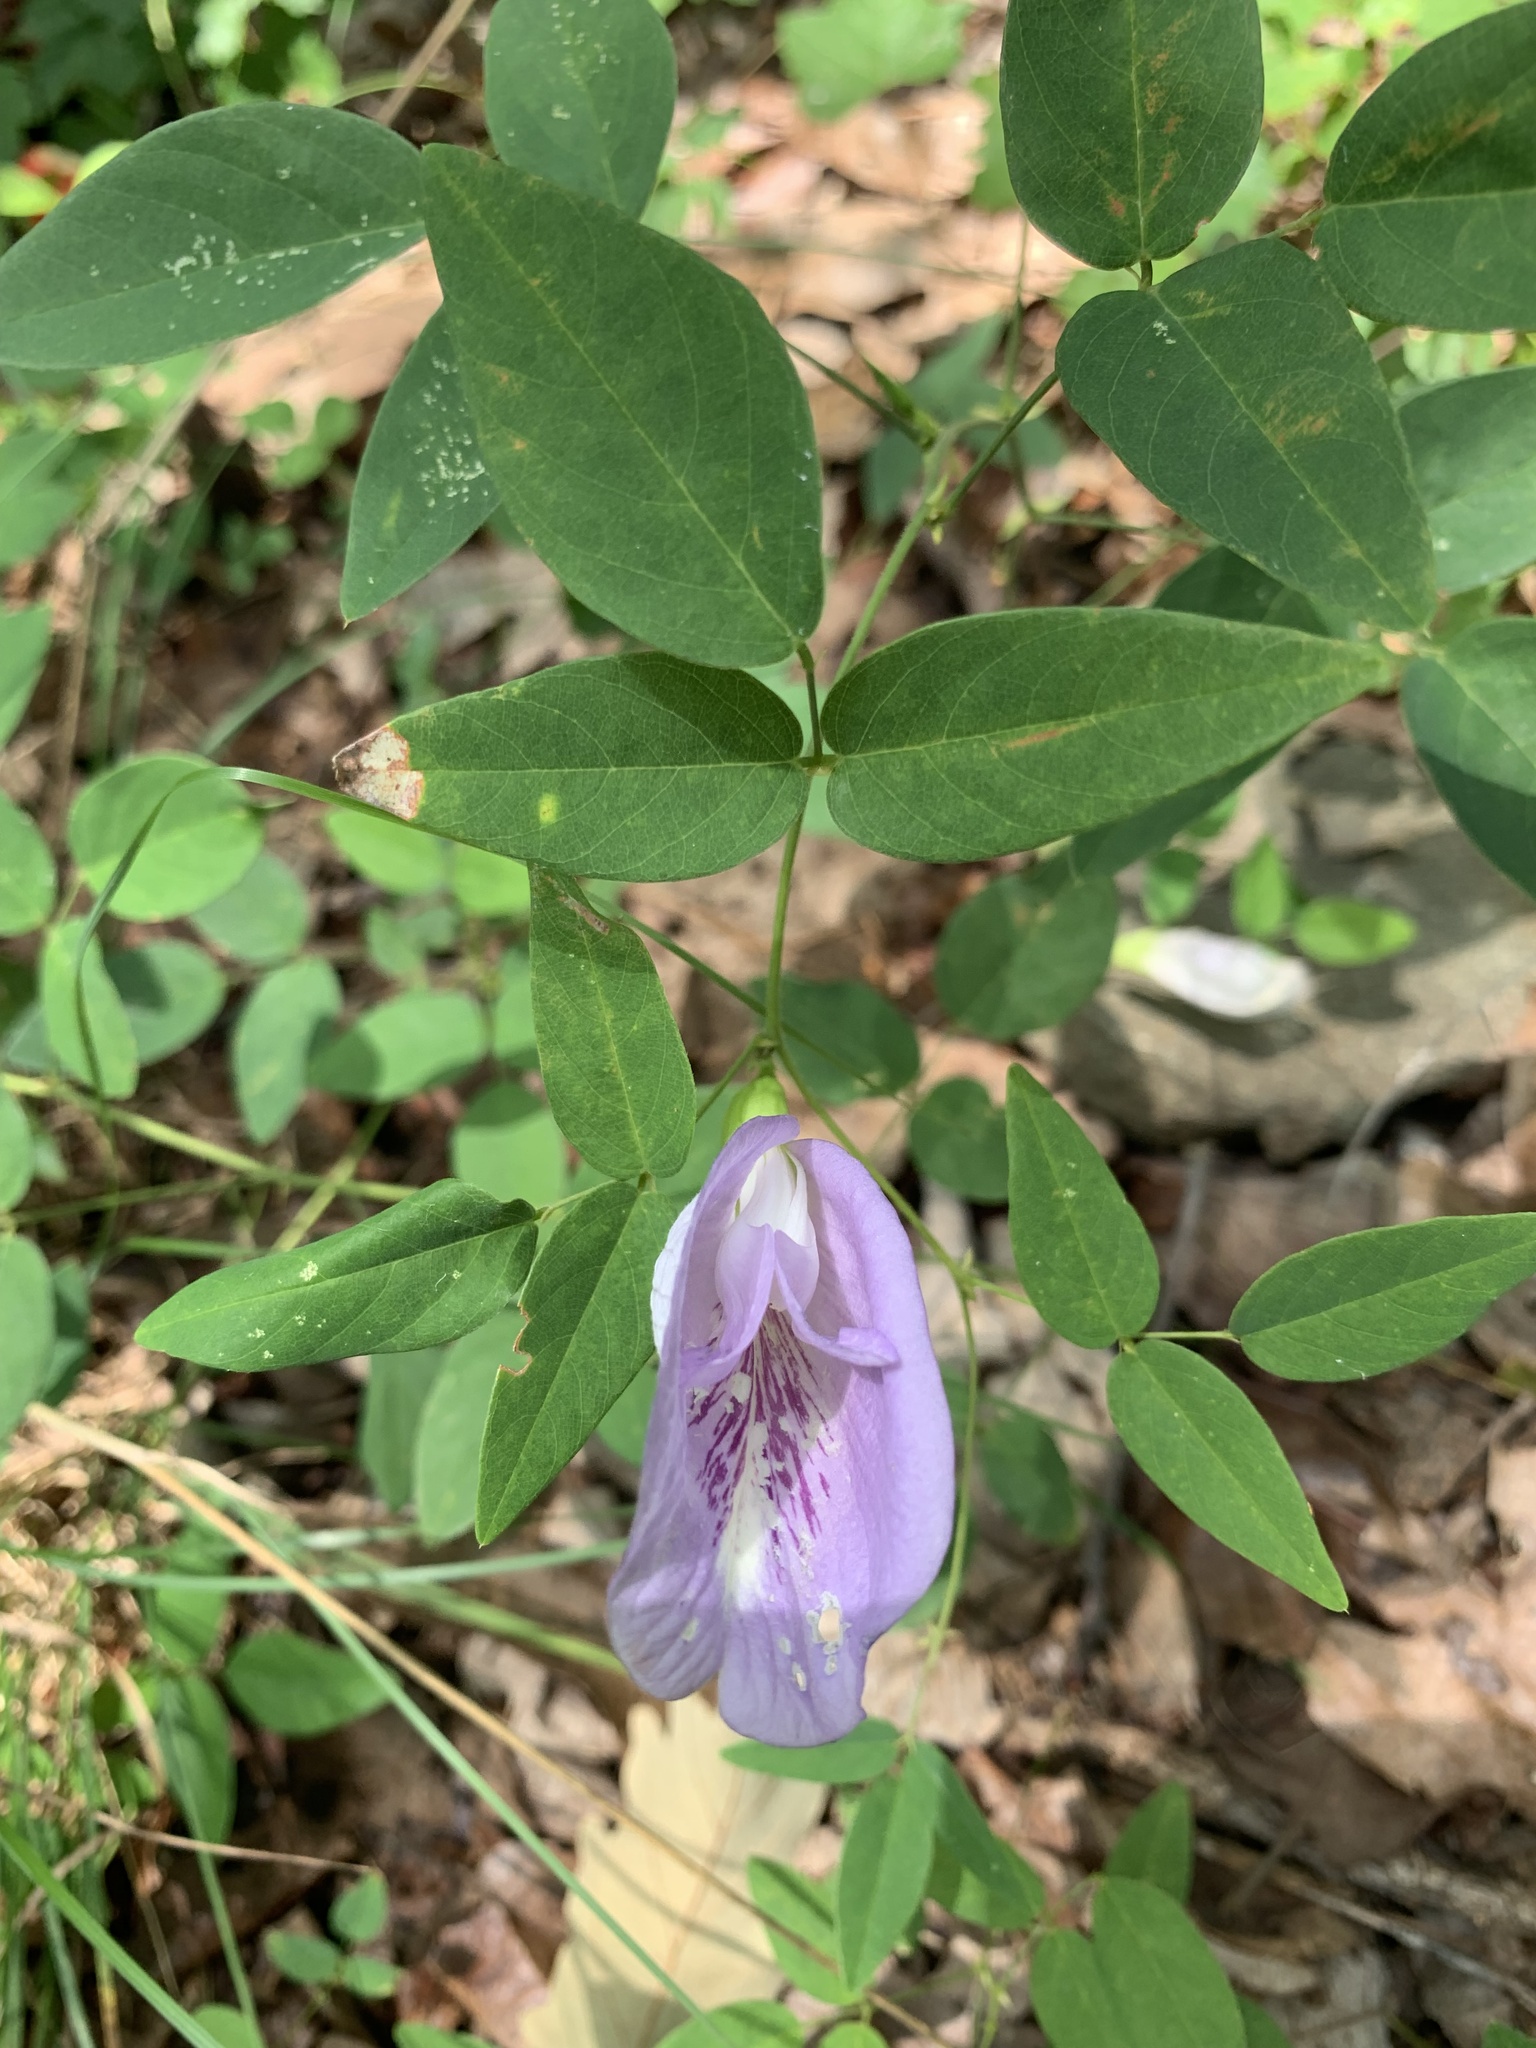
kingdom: Plantae
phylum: Tracheophyta
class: Magnoliopsida
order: Fabales
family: Fabaceae
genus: Clitoria
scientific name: Clitoria mariana
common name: Butterfly-pea
